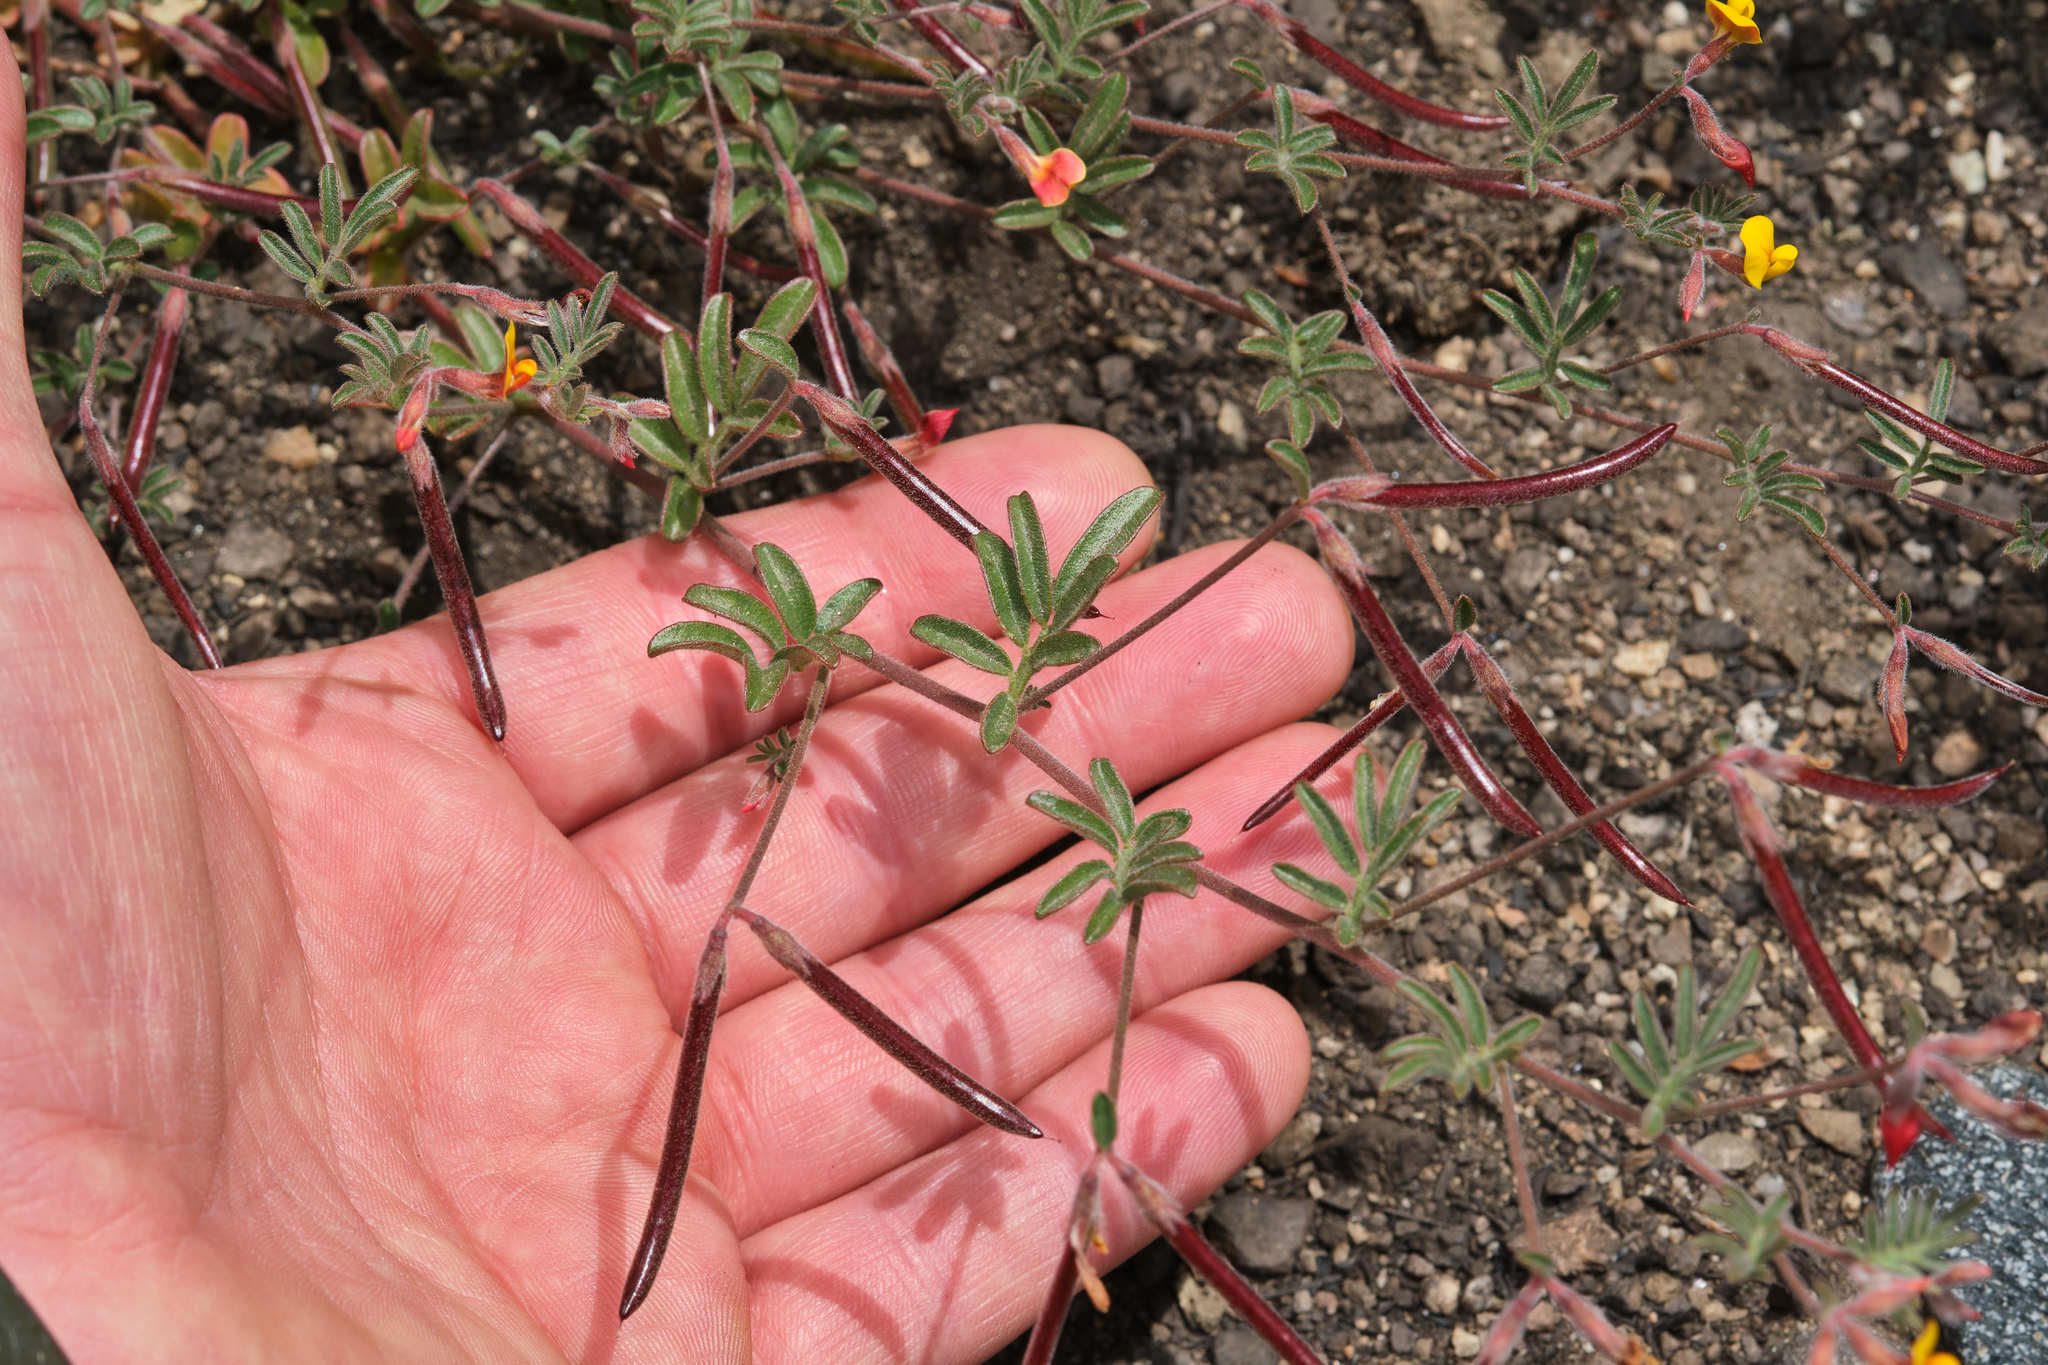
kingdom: Plantae
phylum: Tracheophyta
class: Magnoliopsida
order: Fabales
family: Fabaceae
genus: Acmispon
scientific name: Acmispon strigosus
